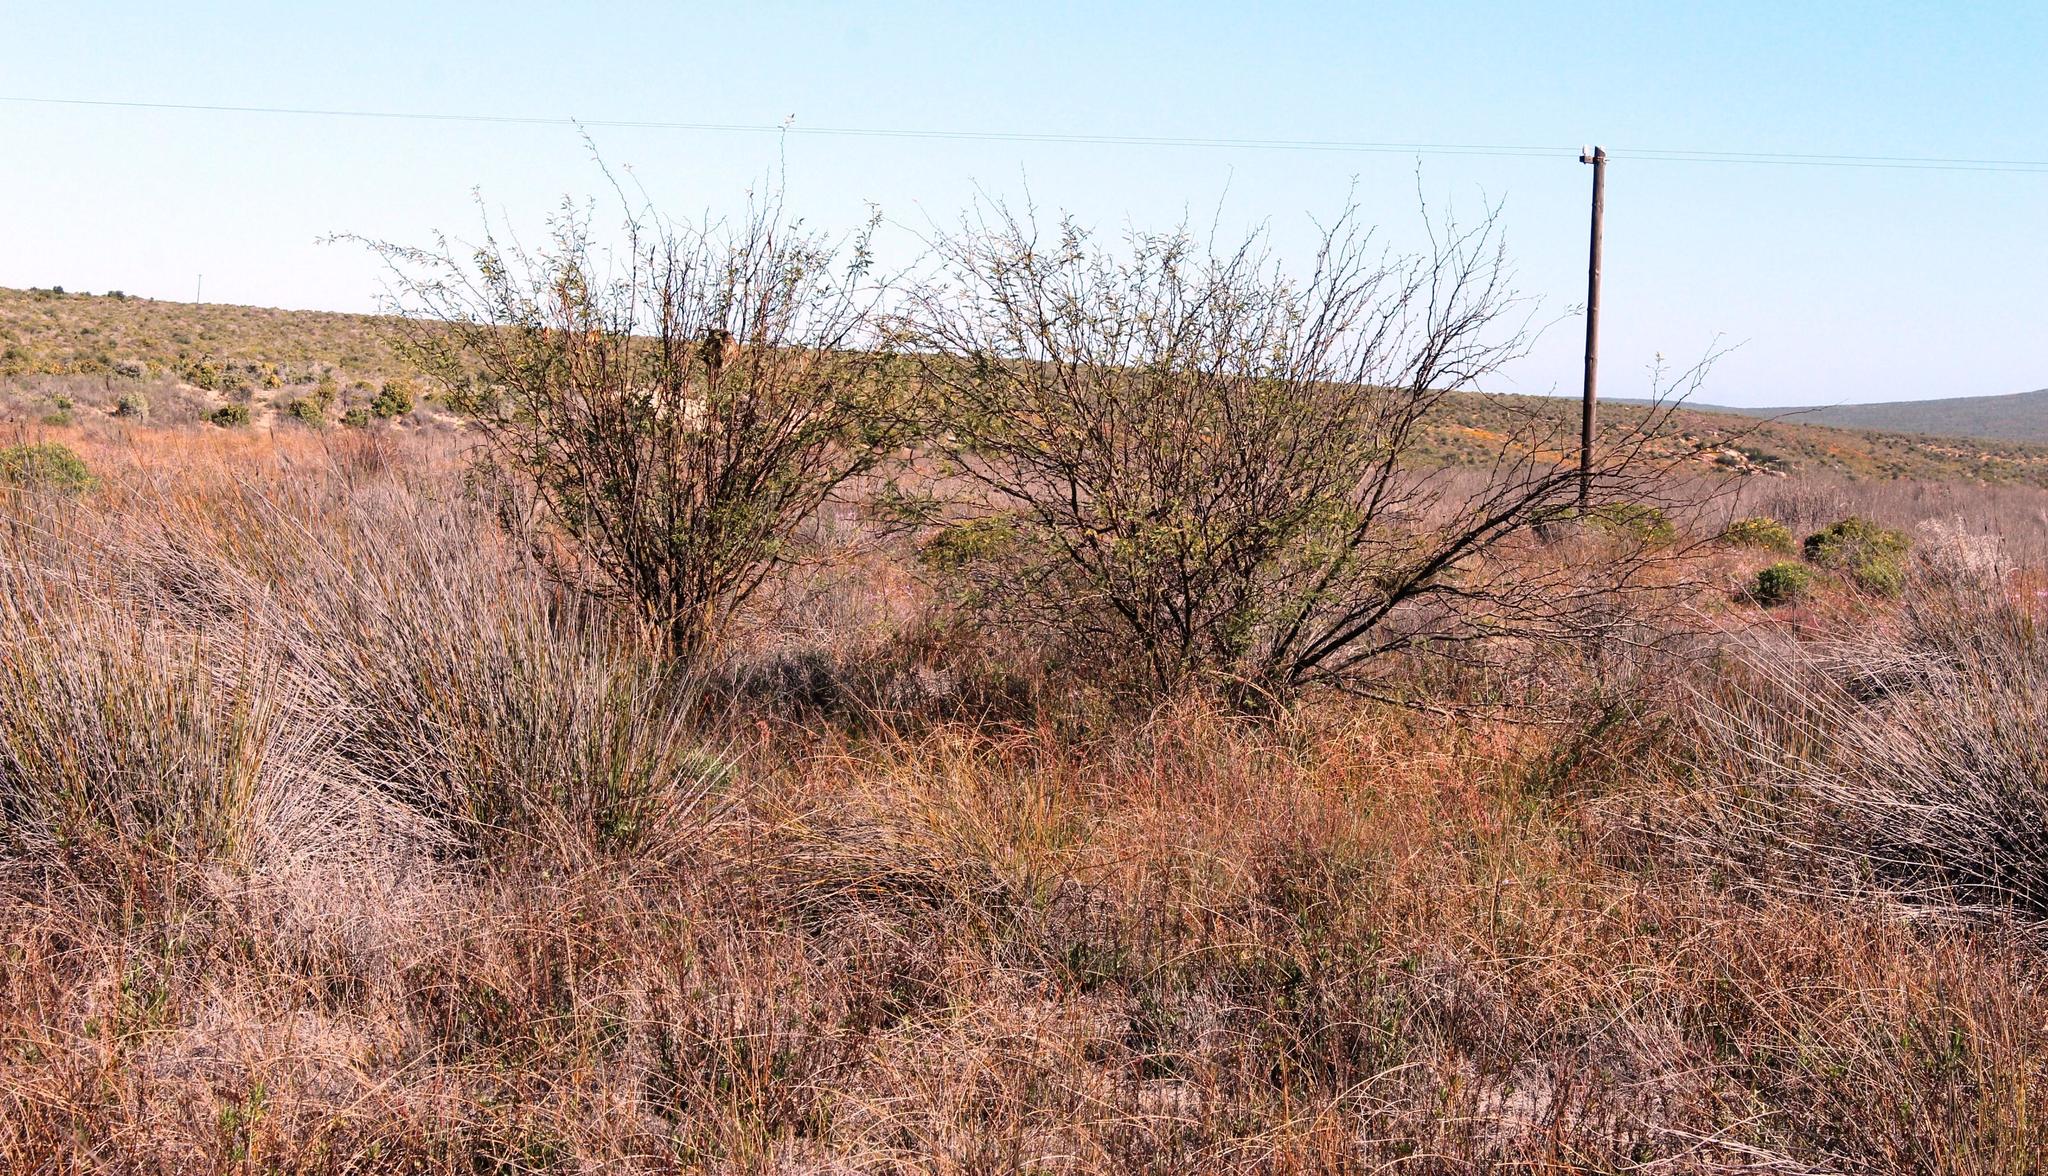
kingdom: Plantae
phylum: Tracheophyta
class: Magnoliopsida
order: Fabales
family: Fabaceae
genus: Prosopis
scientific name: Prosopis glandulosa
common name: Honey mesquite
